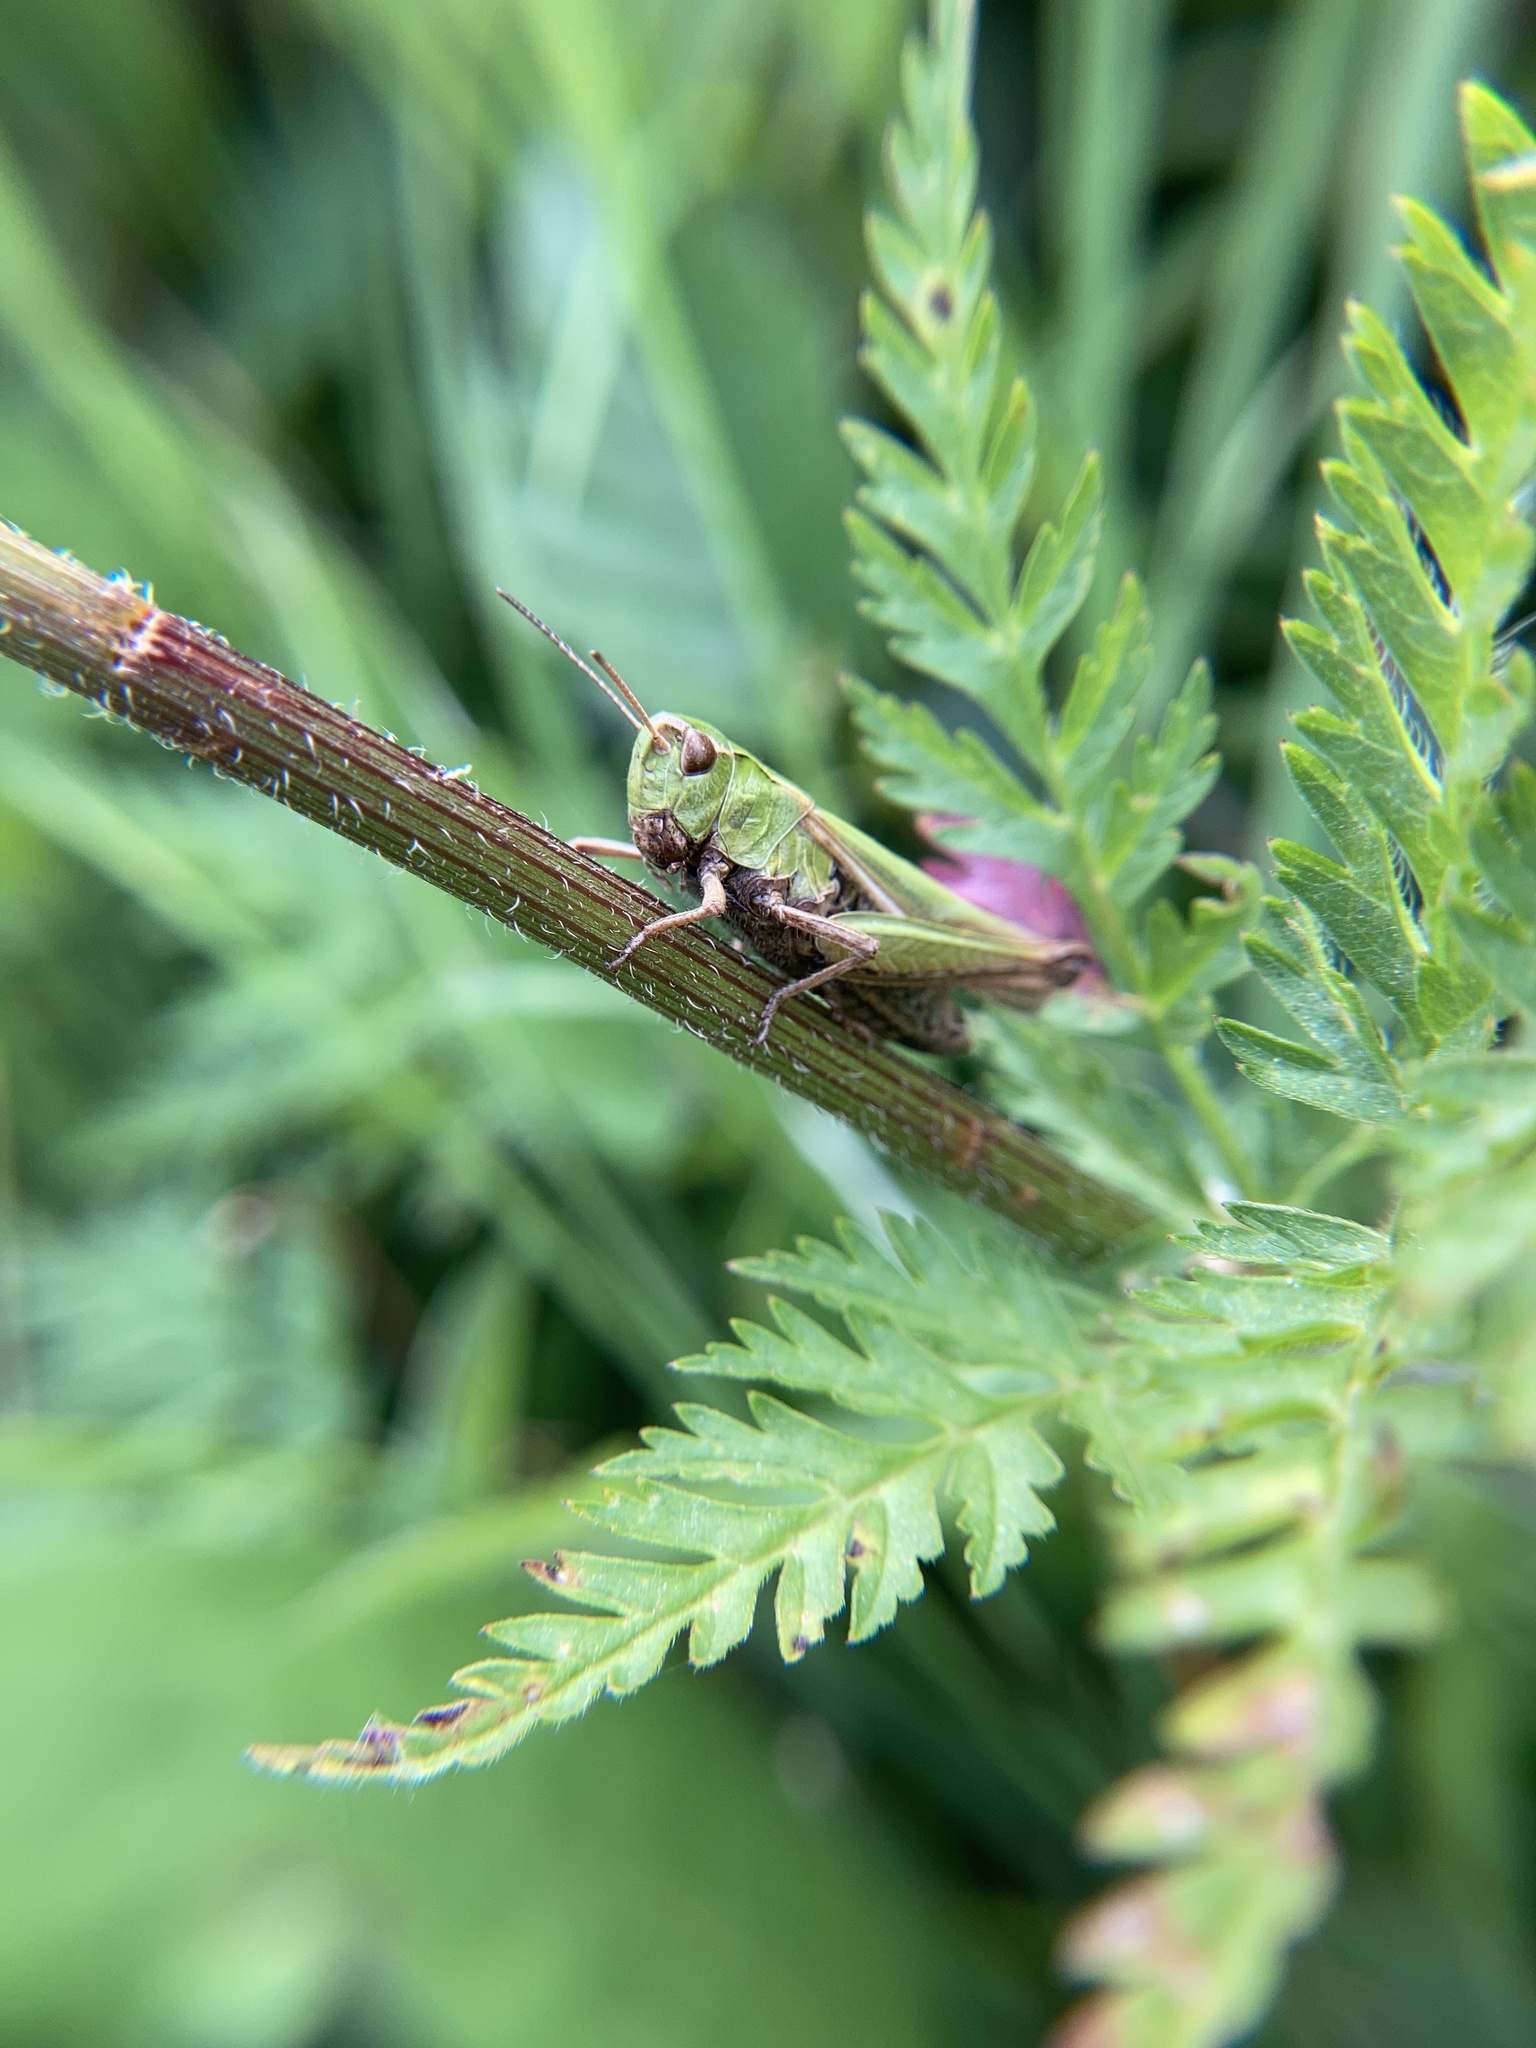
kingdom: Animalia
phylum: Arthropoda
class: Insecta
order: Orthoptera
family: Acrididae
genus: Omocestus
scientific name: Omocestus viridulus
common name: Common green grasshopper
